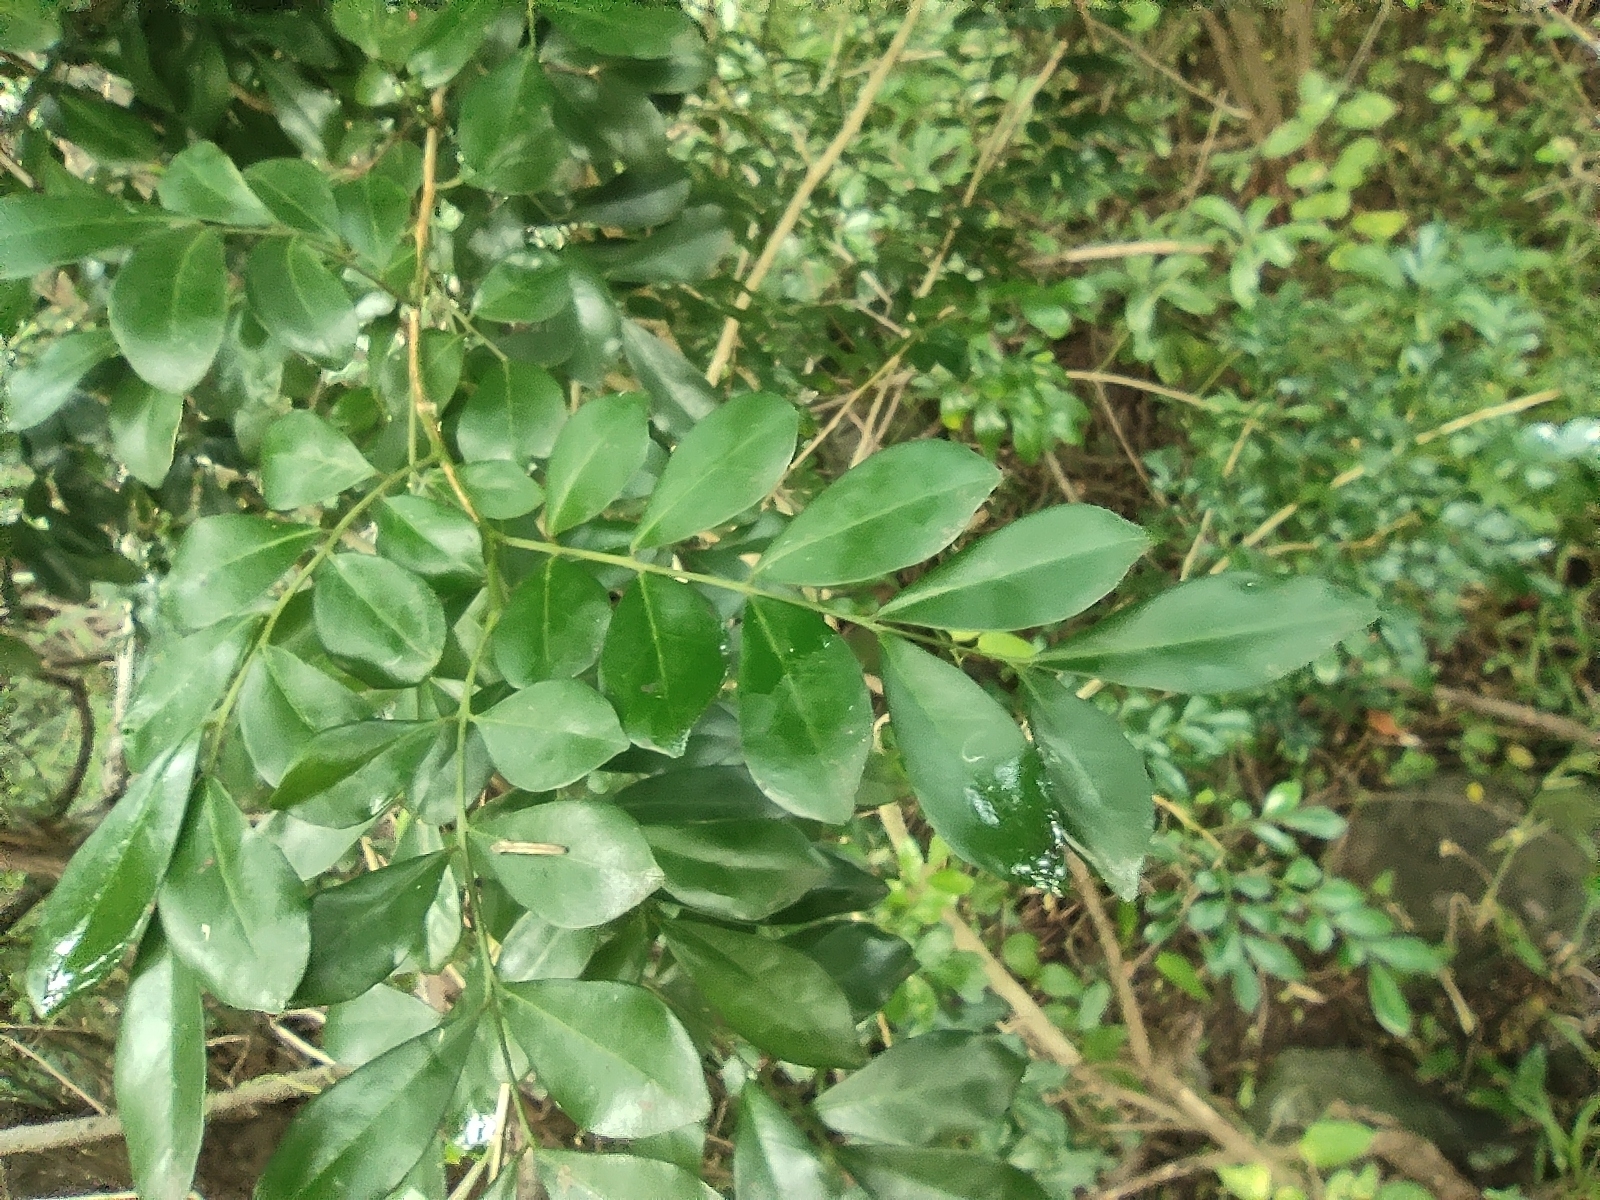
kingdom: Plantae
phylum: Tracheophyta
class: Magnoliopsida
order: Sapindales
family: Rutaceae
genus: Murraya
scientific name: Murraya paniculata
